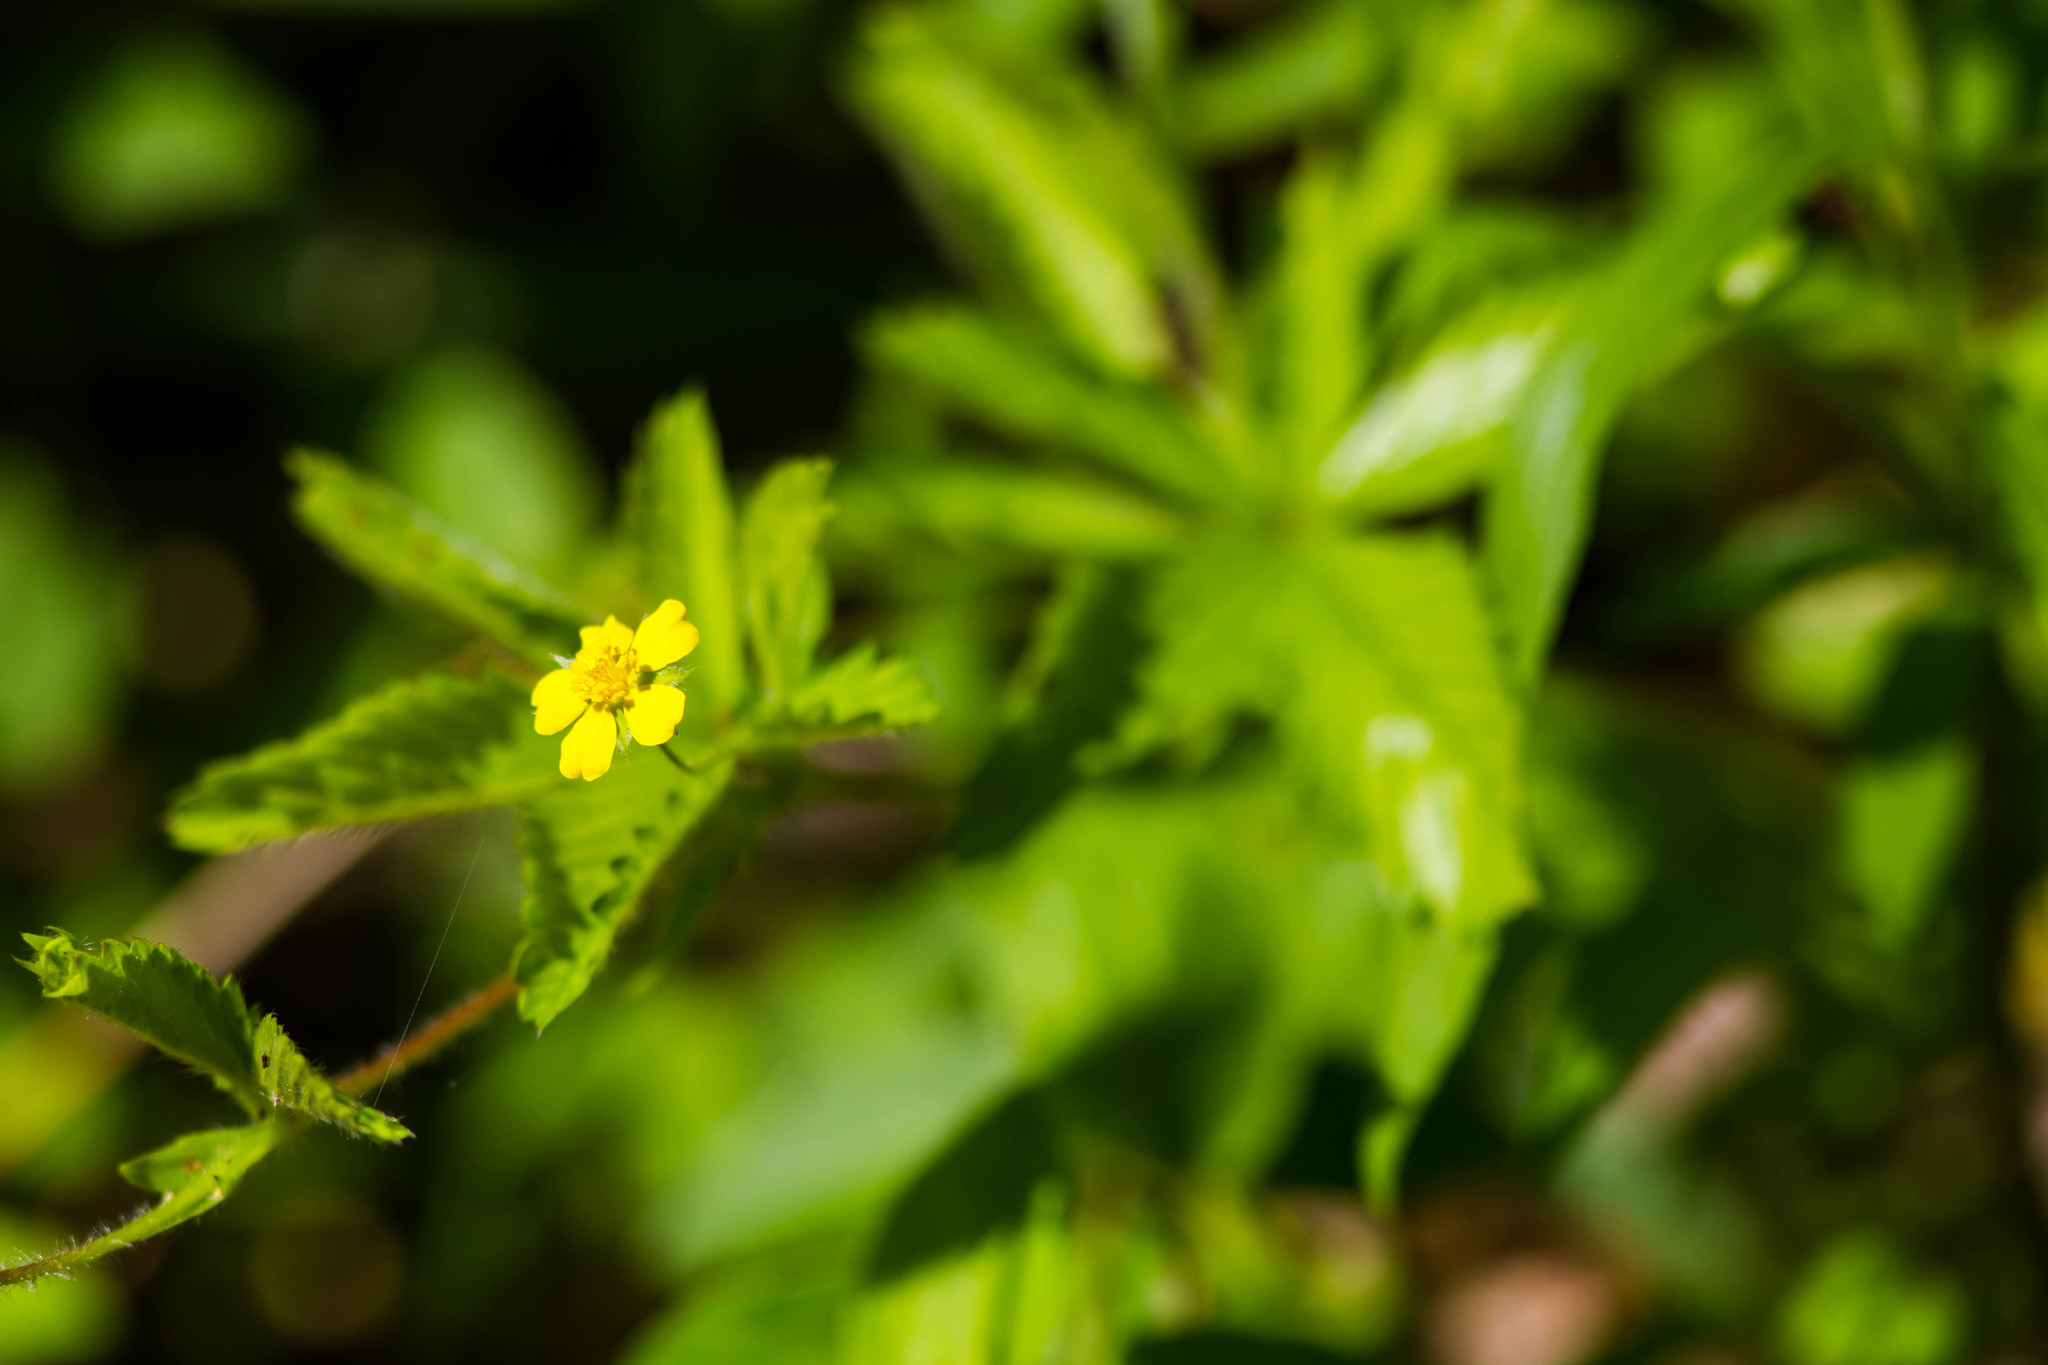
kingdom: Plantae
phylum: Tracheophyta
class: Magnoliopsida
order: Rosales
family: Rosaceae
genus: Potentilla
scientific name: Potentilla simplex
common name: Old field cinquefoil
